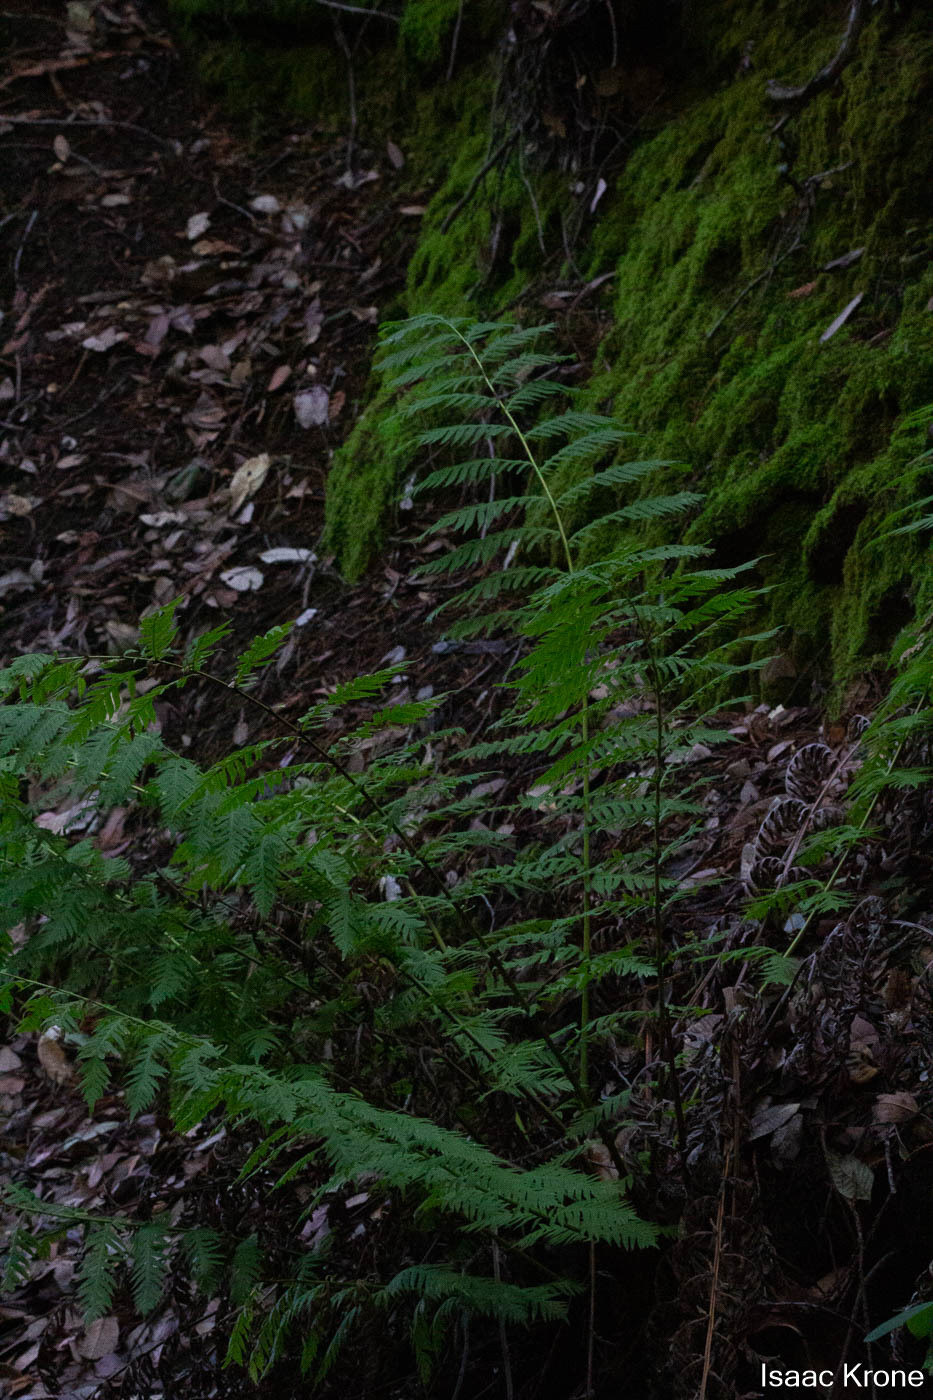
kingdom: Plantae
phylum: Tracheophyta
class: Polypodiopsida
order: Polypodiales
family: Blechnaceae
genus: Woodwardia
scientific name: Woodwardia fimbriata
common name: Giant chain fern
